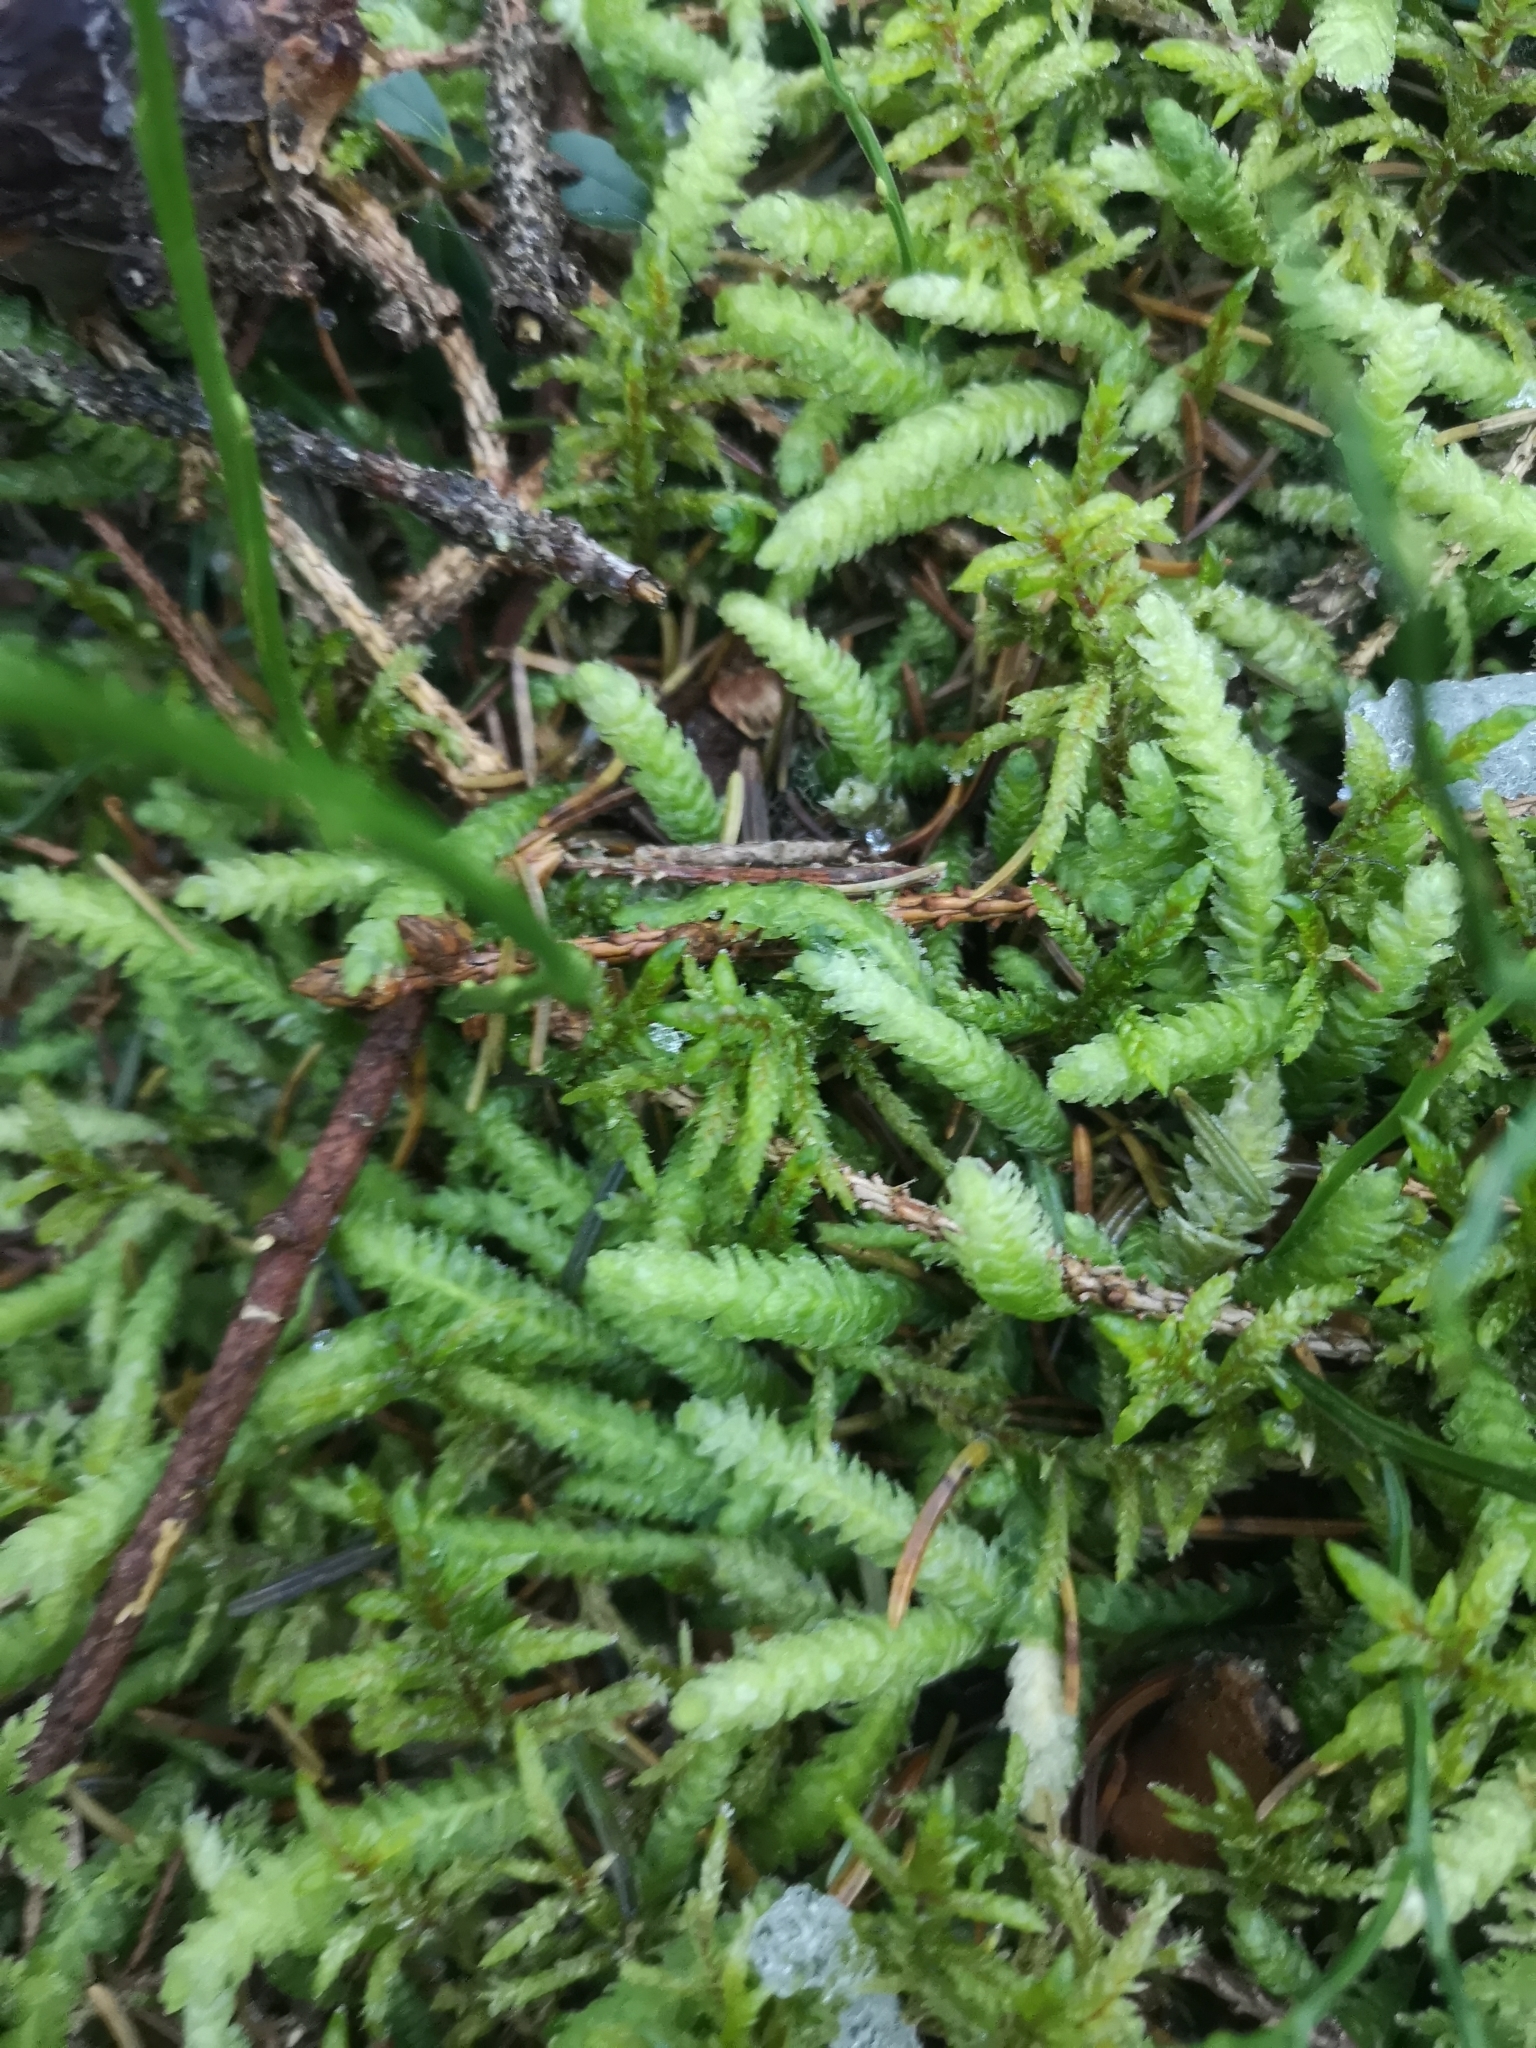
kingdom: Plantae
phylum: Bryophyta
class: Bryopsida
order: Hypnales
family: Plagiotheciaceae
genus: Plagiothecium
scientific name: Plagiothecium undulatum
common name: Waved silk-moss
